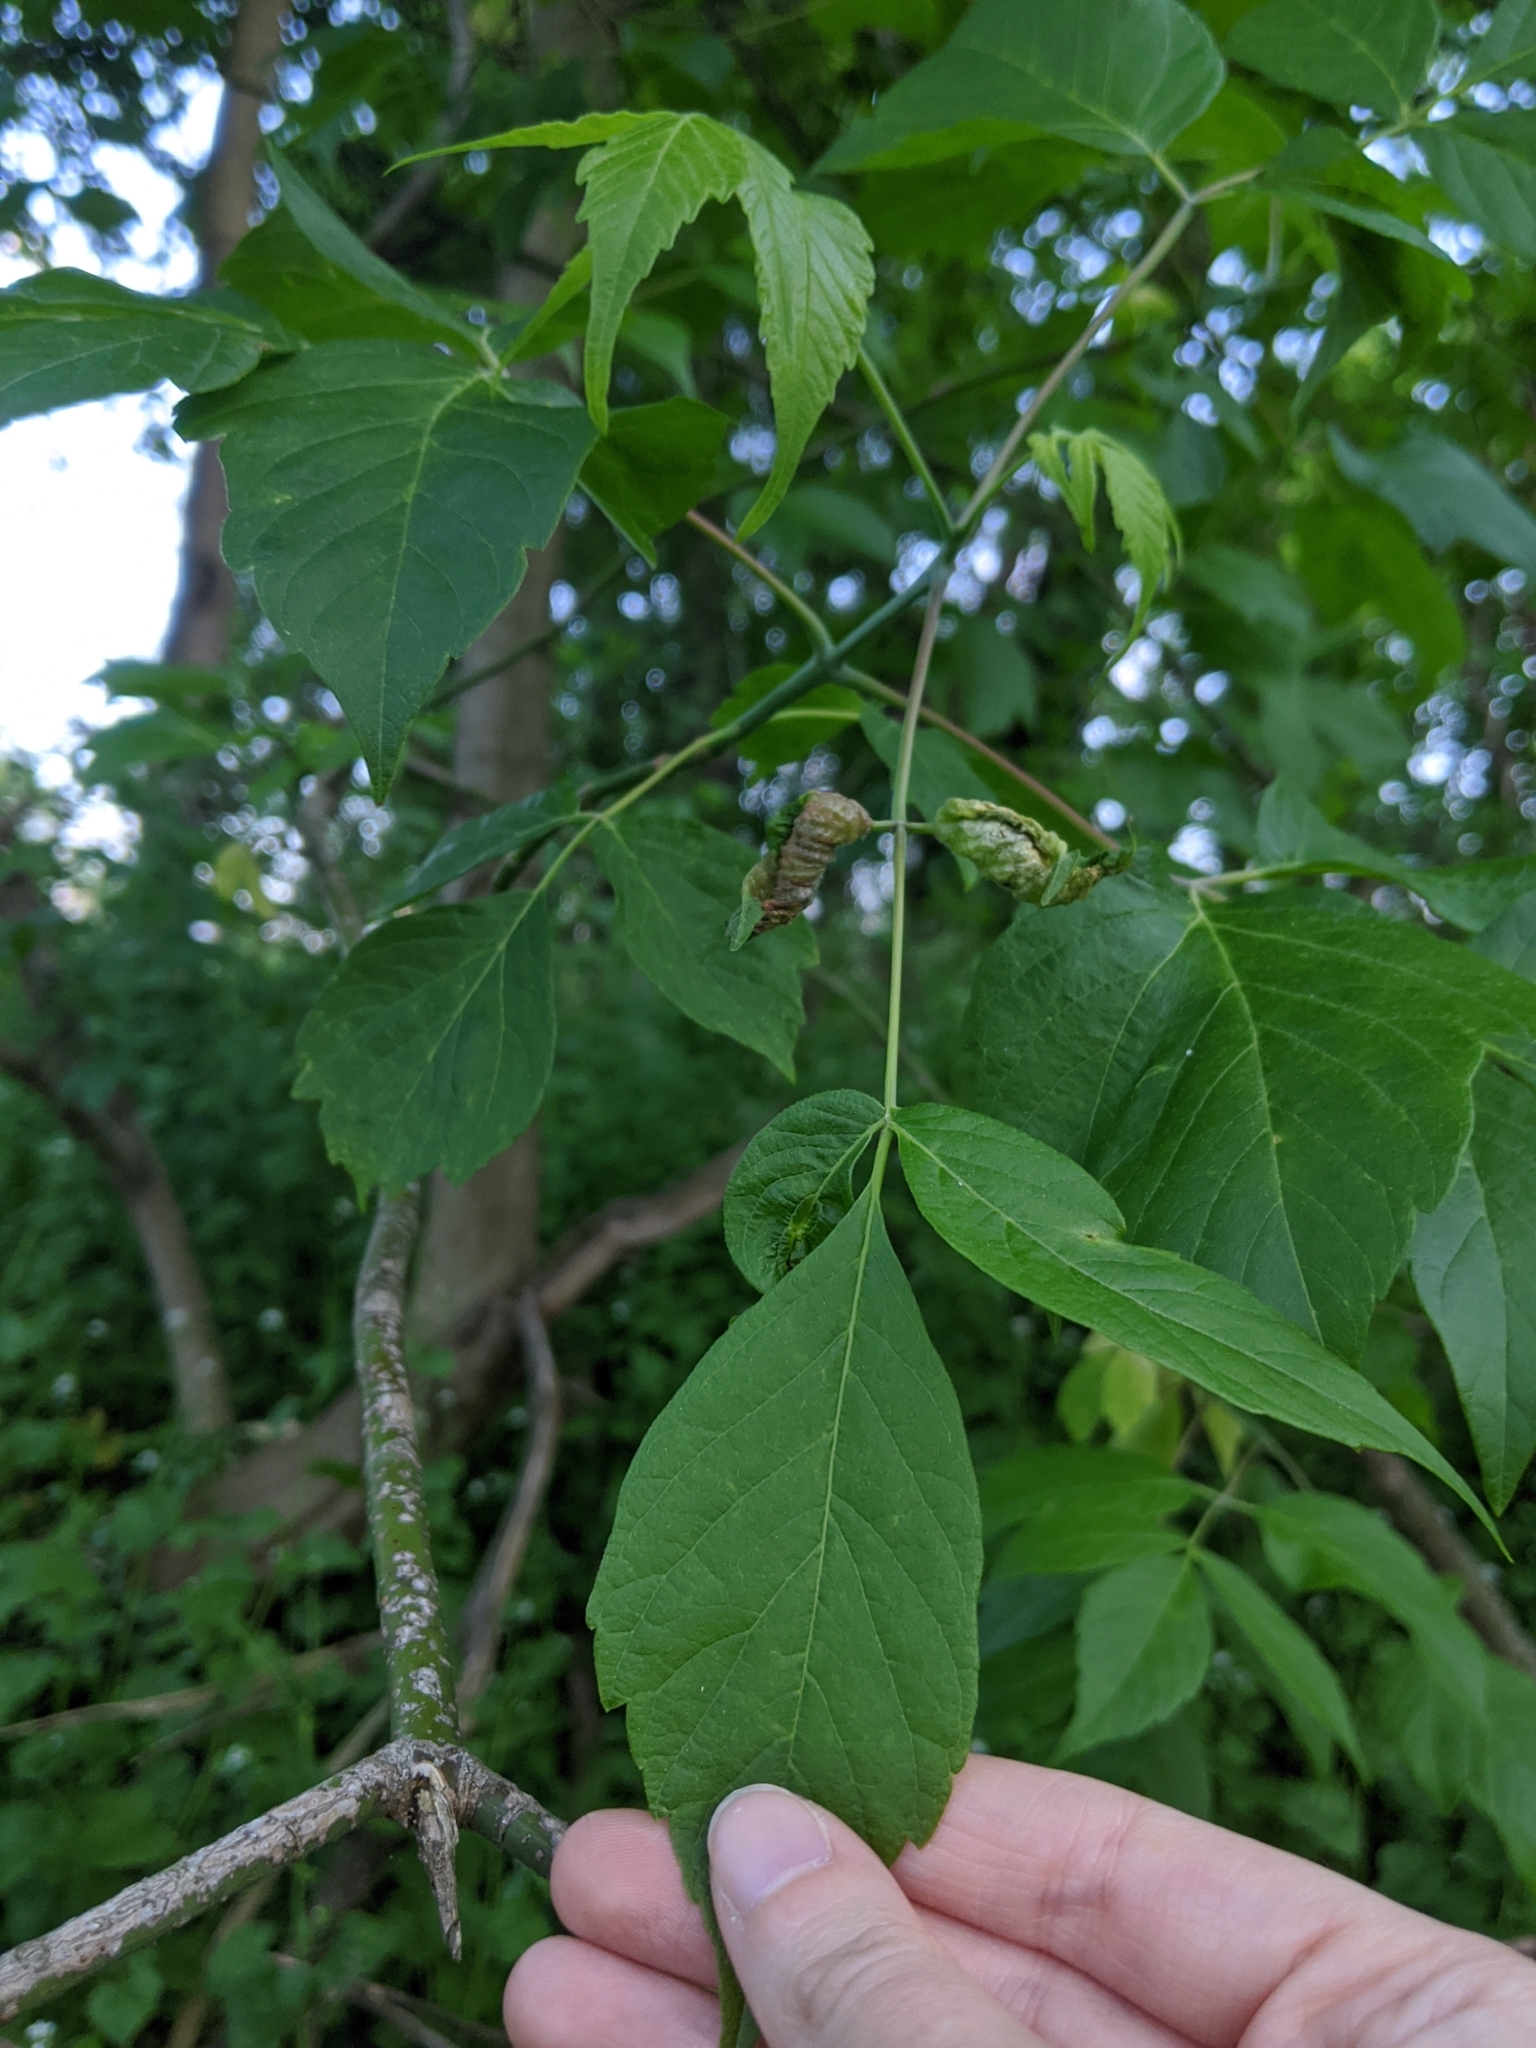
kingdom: Plantae
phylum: Tracheophyta
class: Magnoliopsida
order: Sapindales
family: Sapindaceae
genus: Acer
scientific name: Acer negundo
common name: Ashleaf maple
